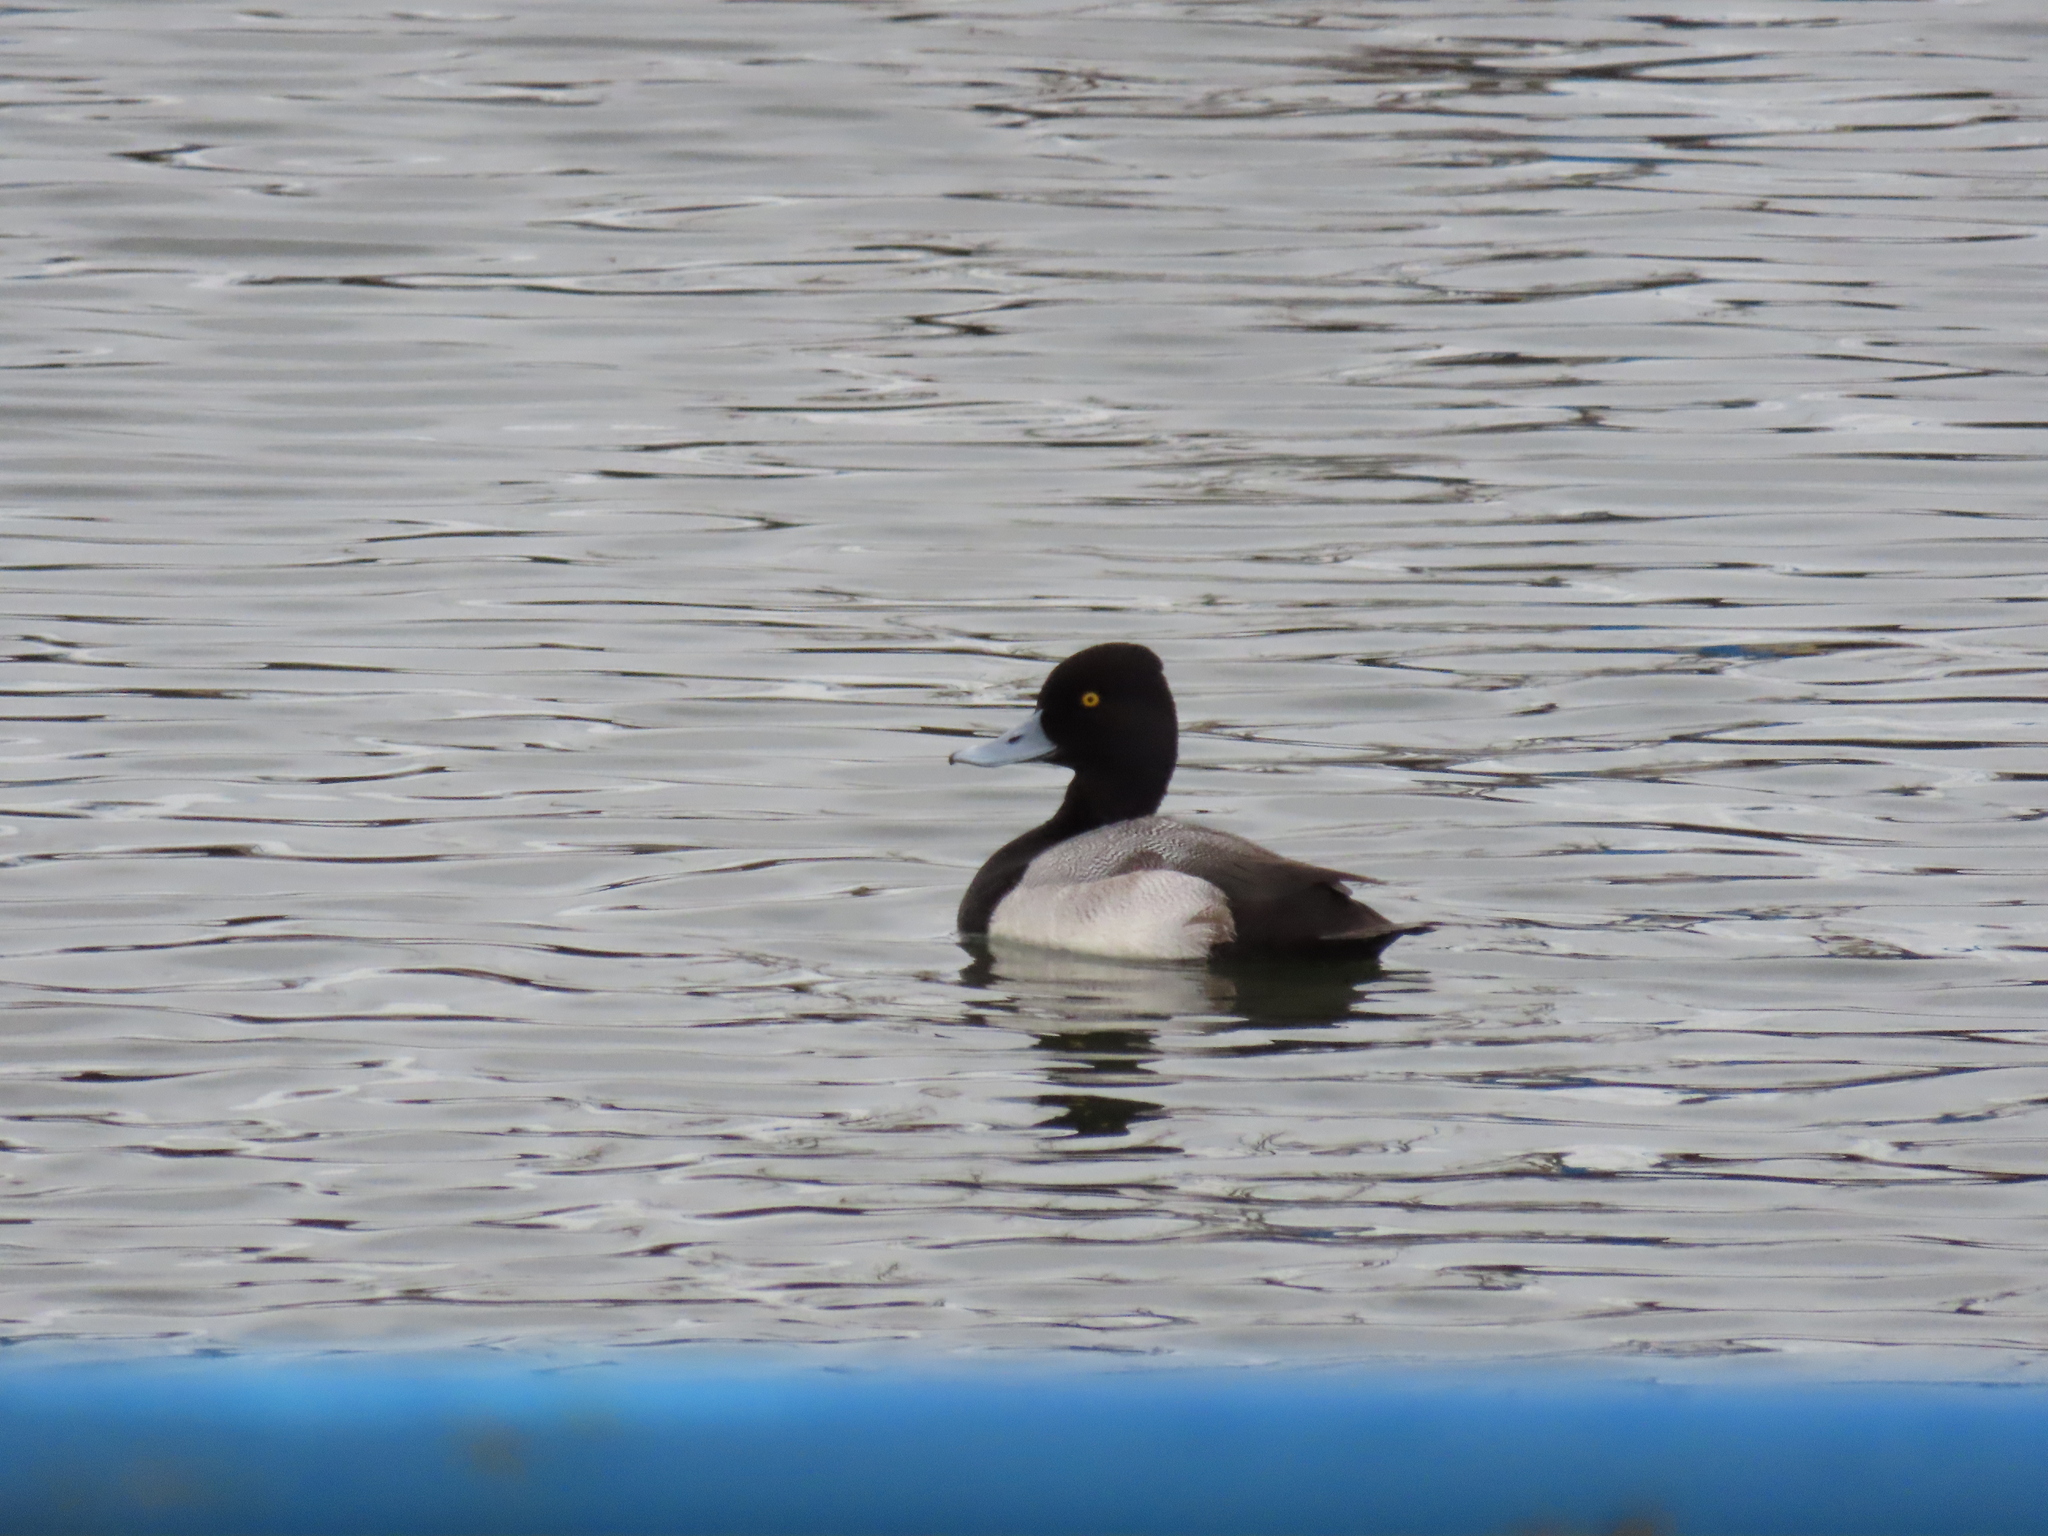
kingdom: Animalia
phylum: Chordata
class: Aves
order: Anseriformes
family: Anatidae
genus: Aythya
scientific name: Aythya affinis
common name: Lesser scaup
